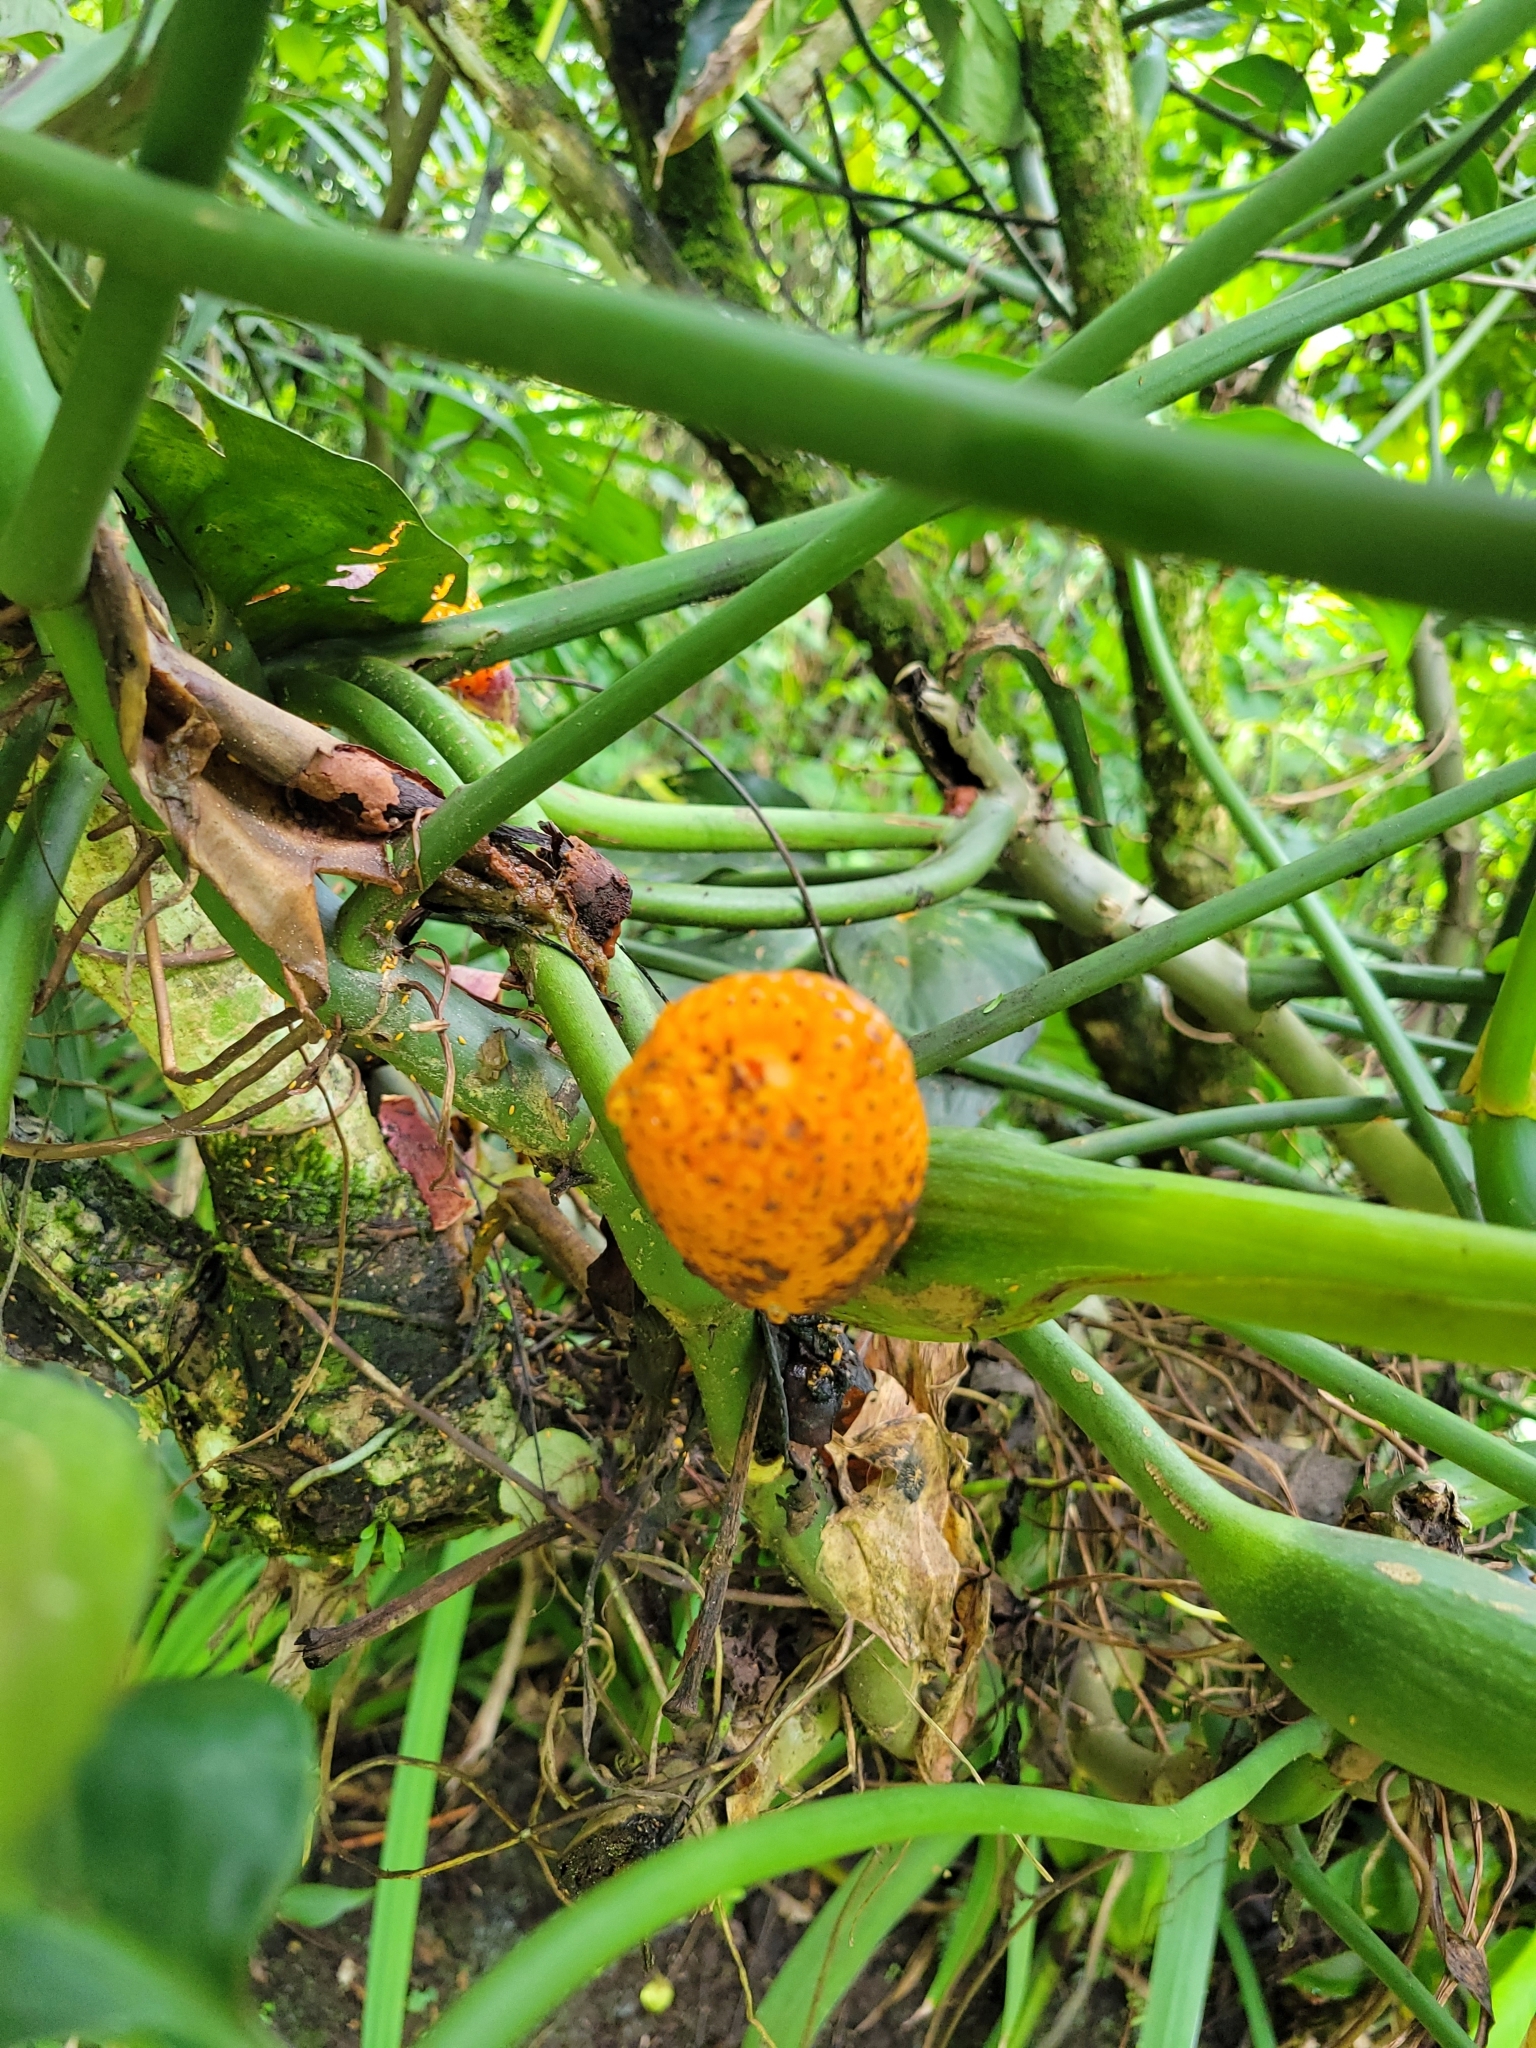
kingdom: Plantae
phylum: Tracheophyta
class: Liliopsida
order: Alismatales
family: Araceae
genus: Philodendron
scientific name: Philodendron anisotomum
